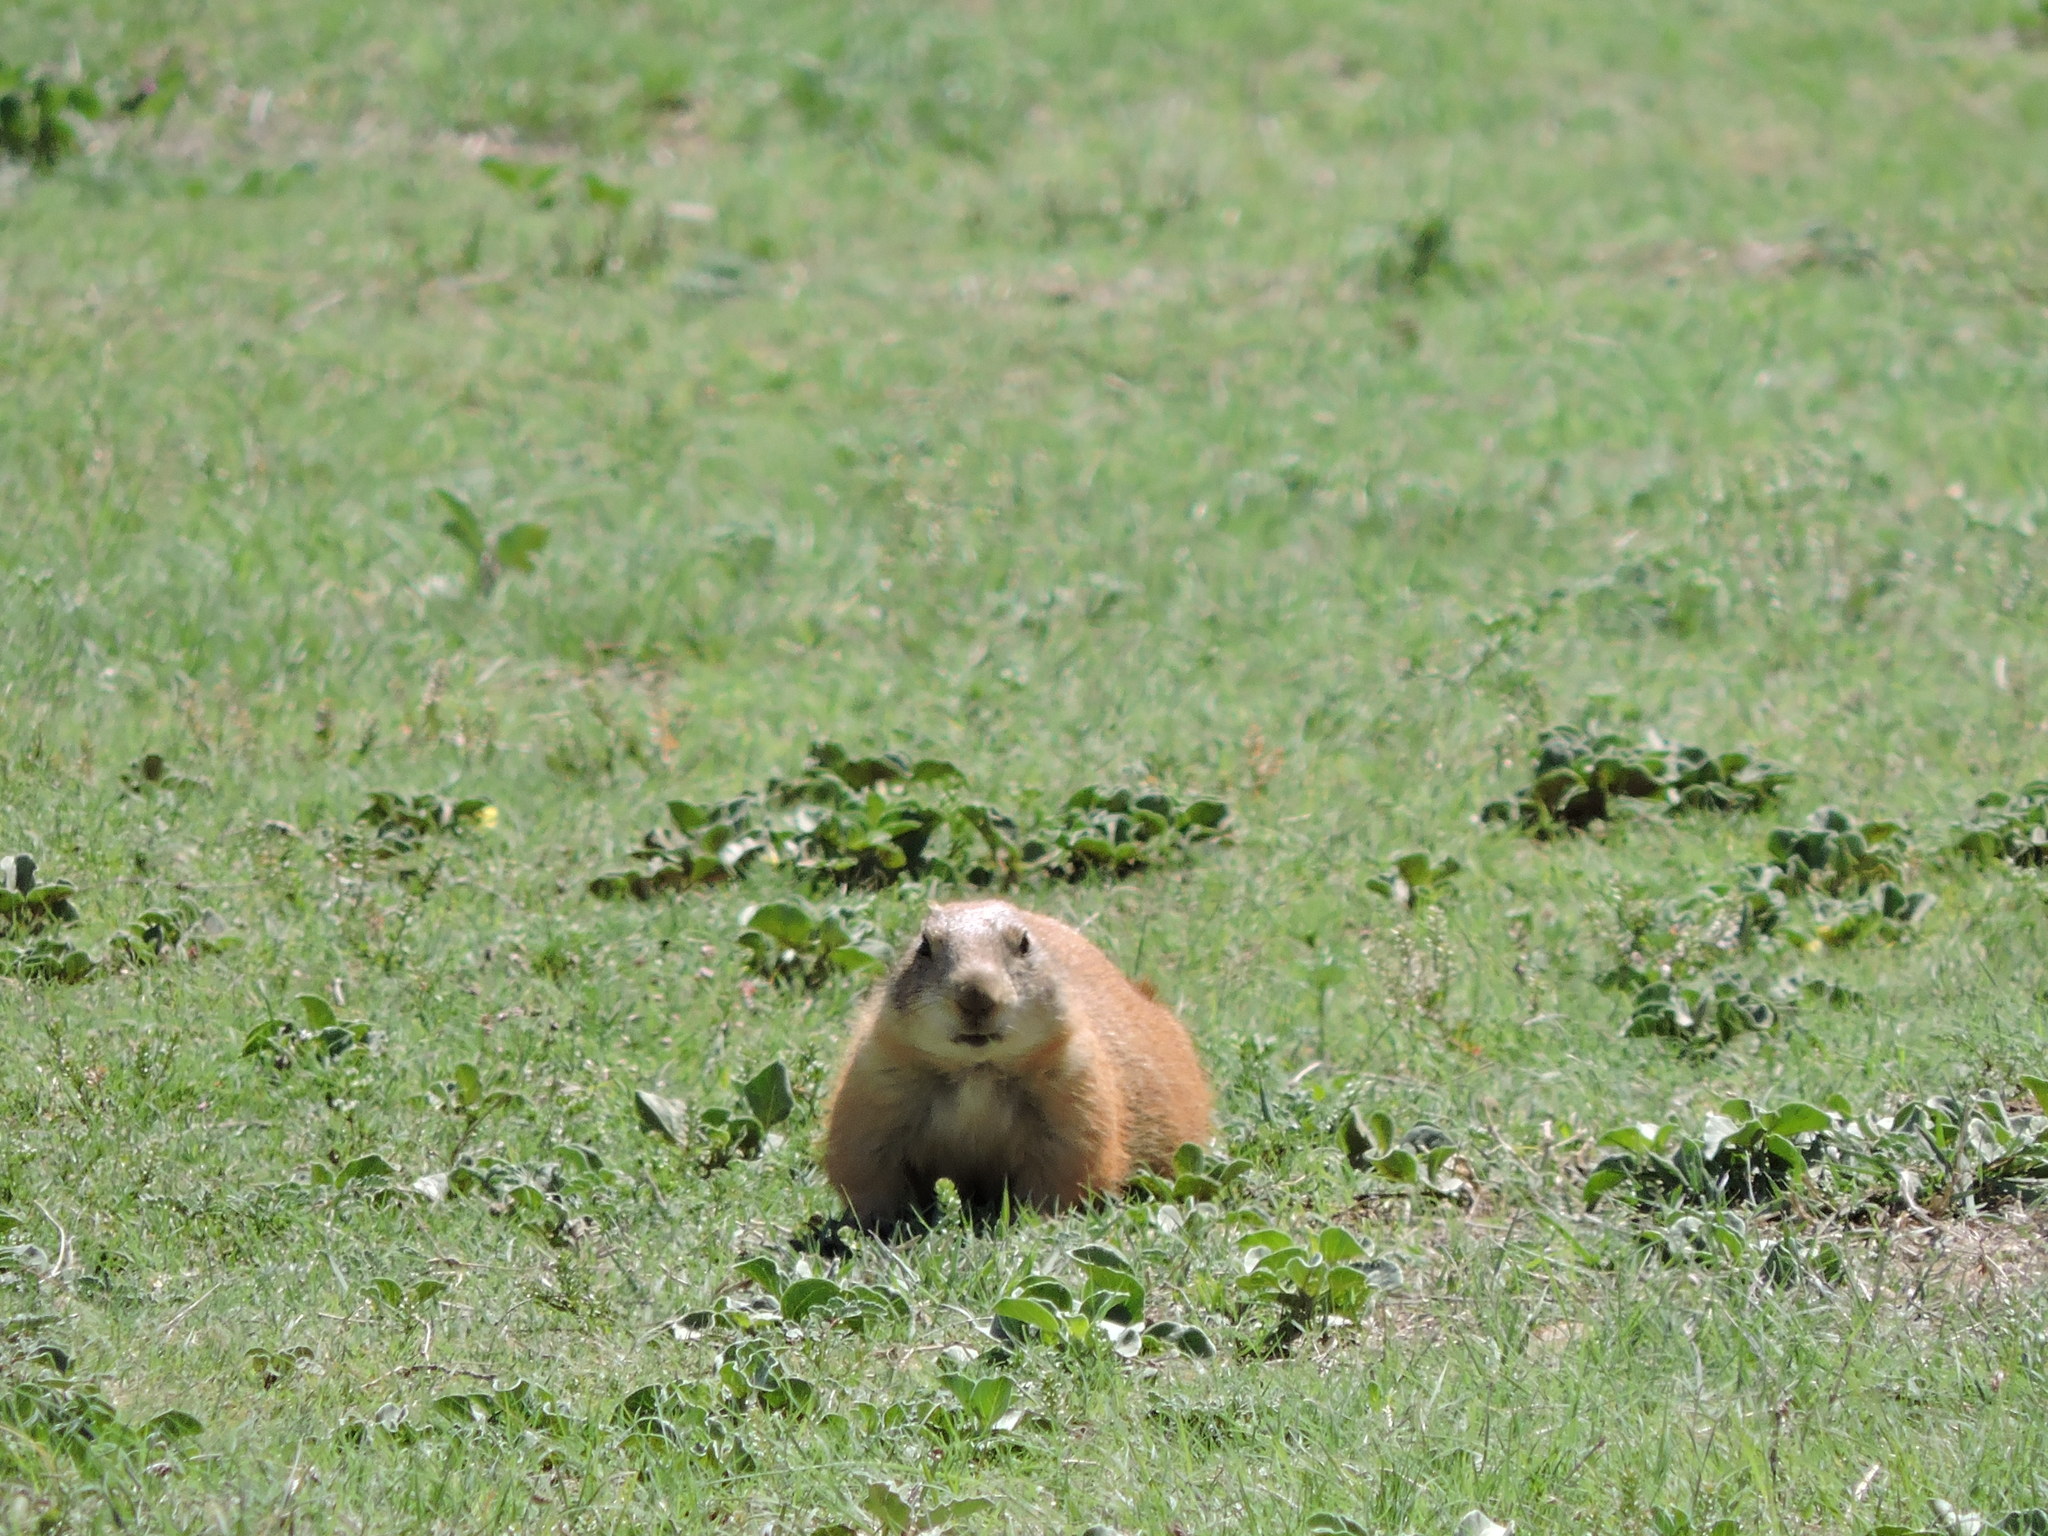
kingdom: Animalia
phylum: Chordata
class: Mammalia
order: Rodentia
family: Sciuridae
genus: Cynomys
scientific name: Cynomys ludovicianus
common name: Black-tailed prairie dog
